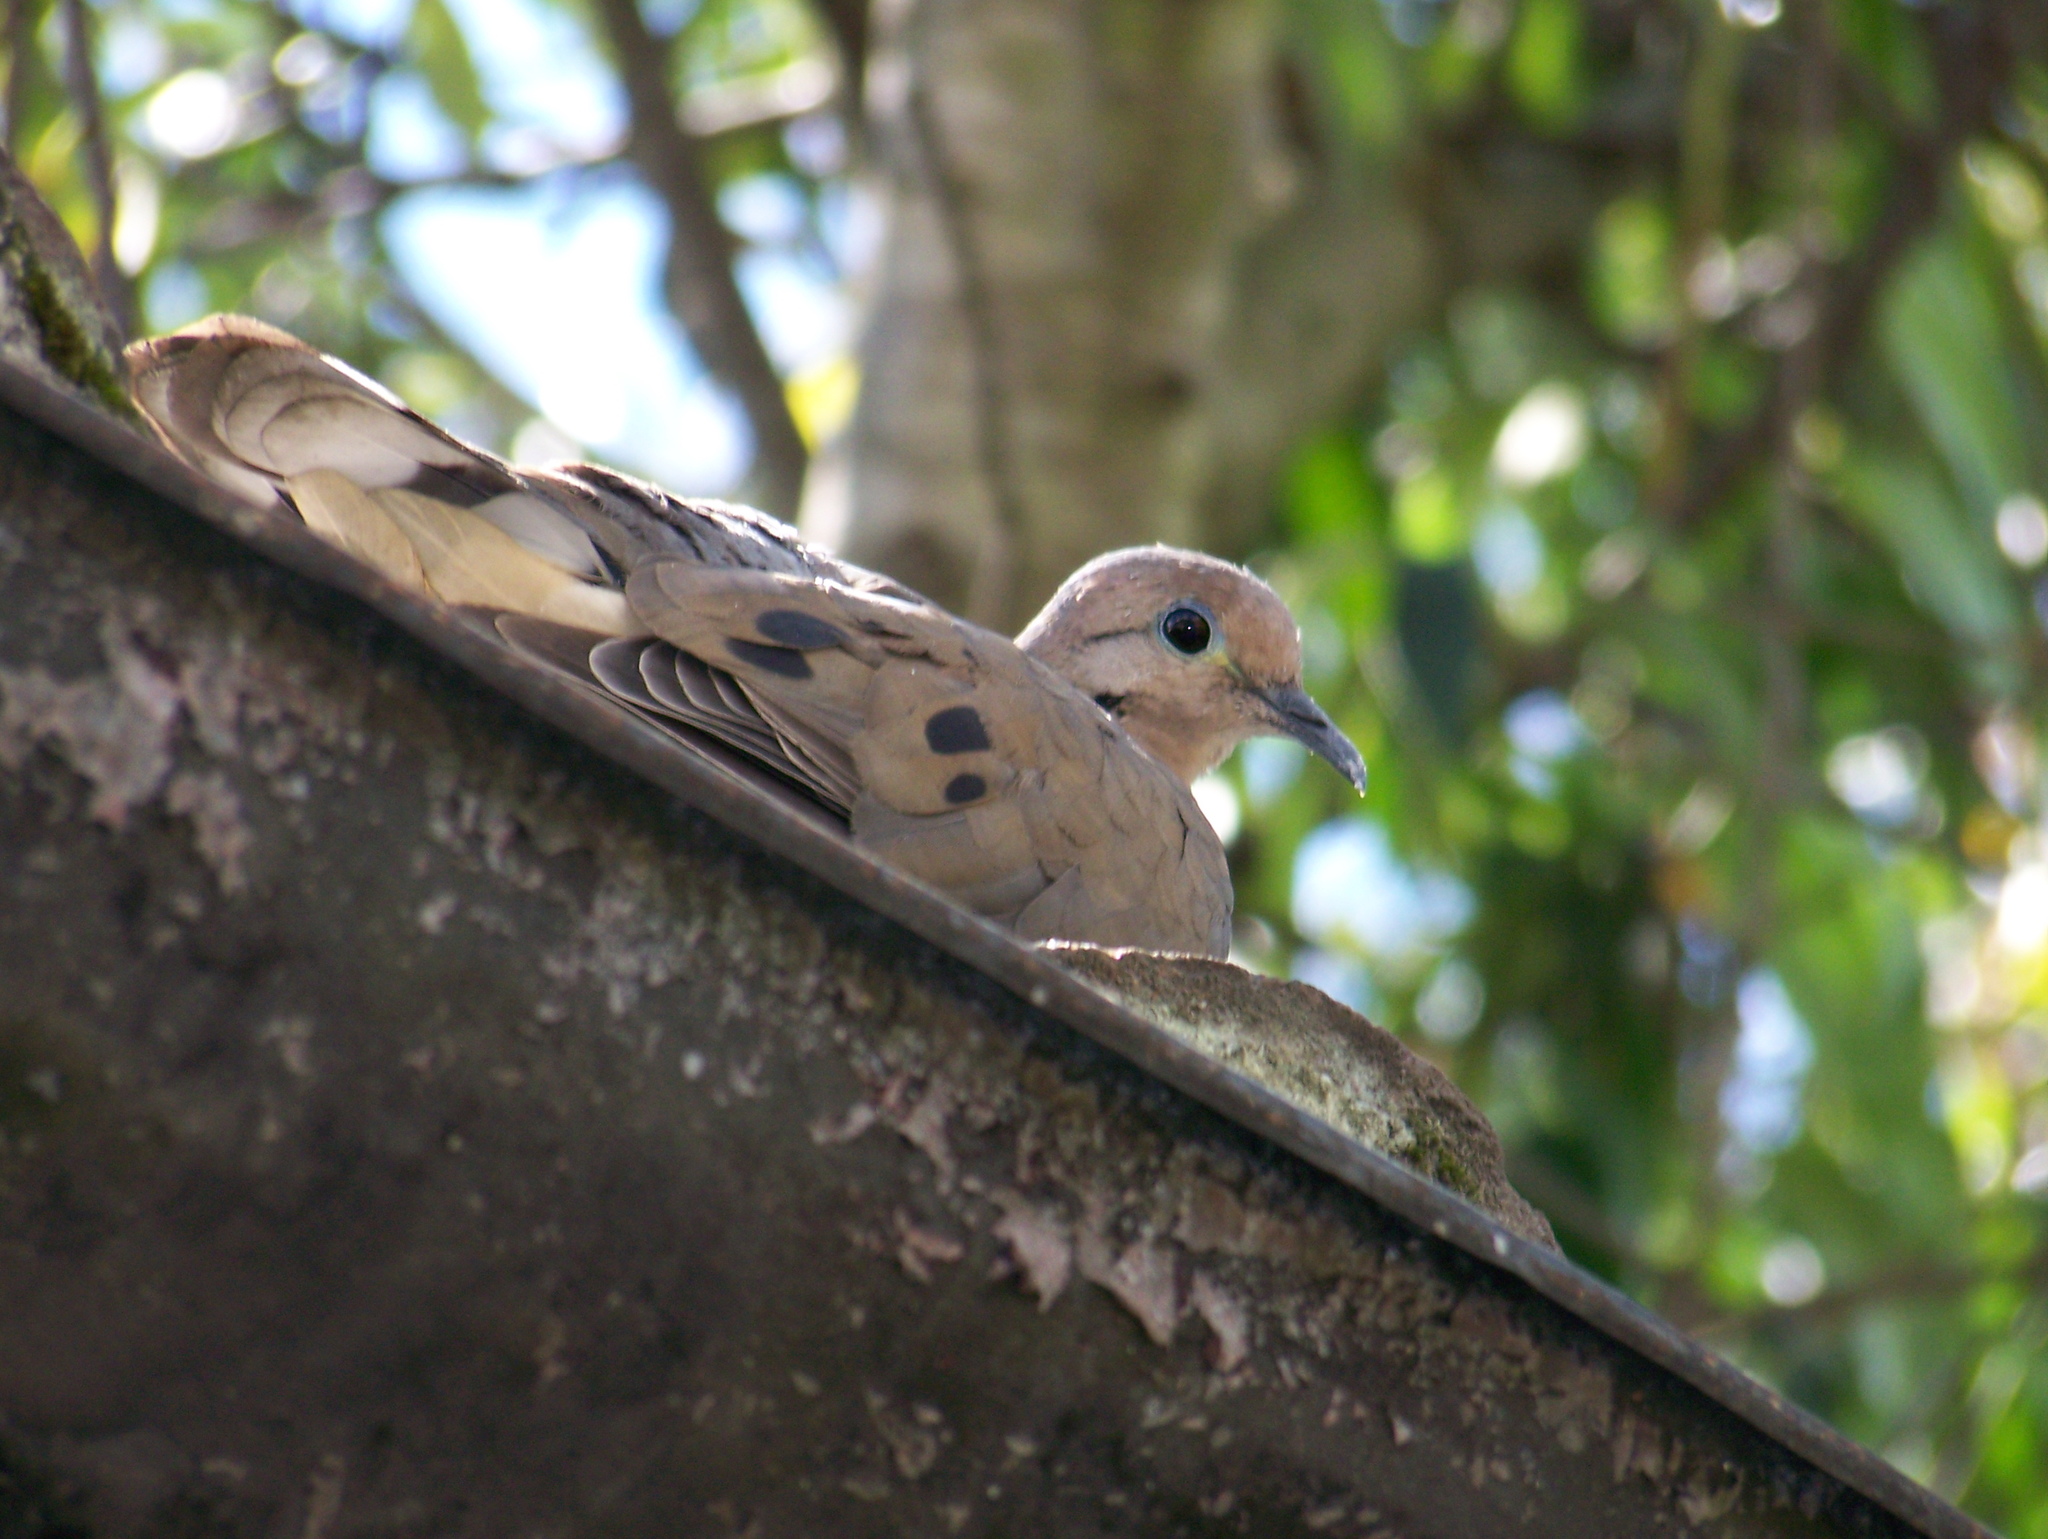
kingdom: Animalia
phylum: Chordata
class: Aves
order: Columbiformes
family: Columbidae
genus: Zenaida
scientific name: Zenaida auriculata
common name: Eared dove
